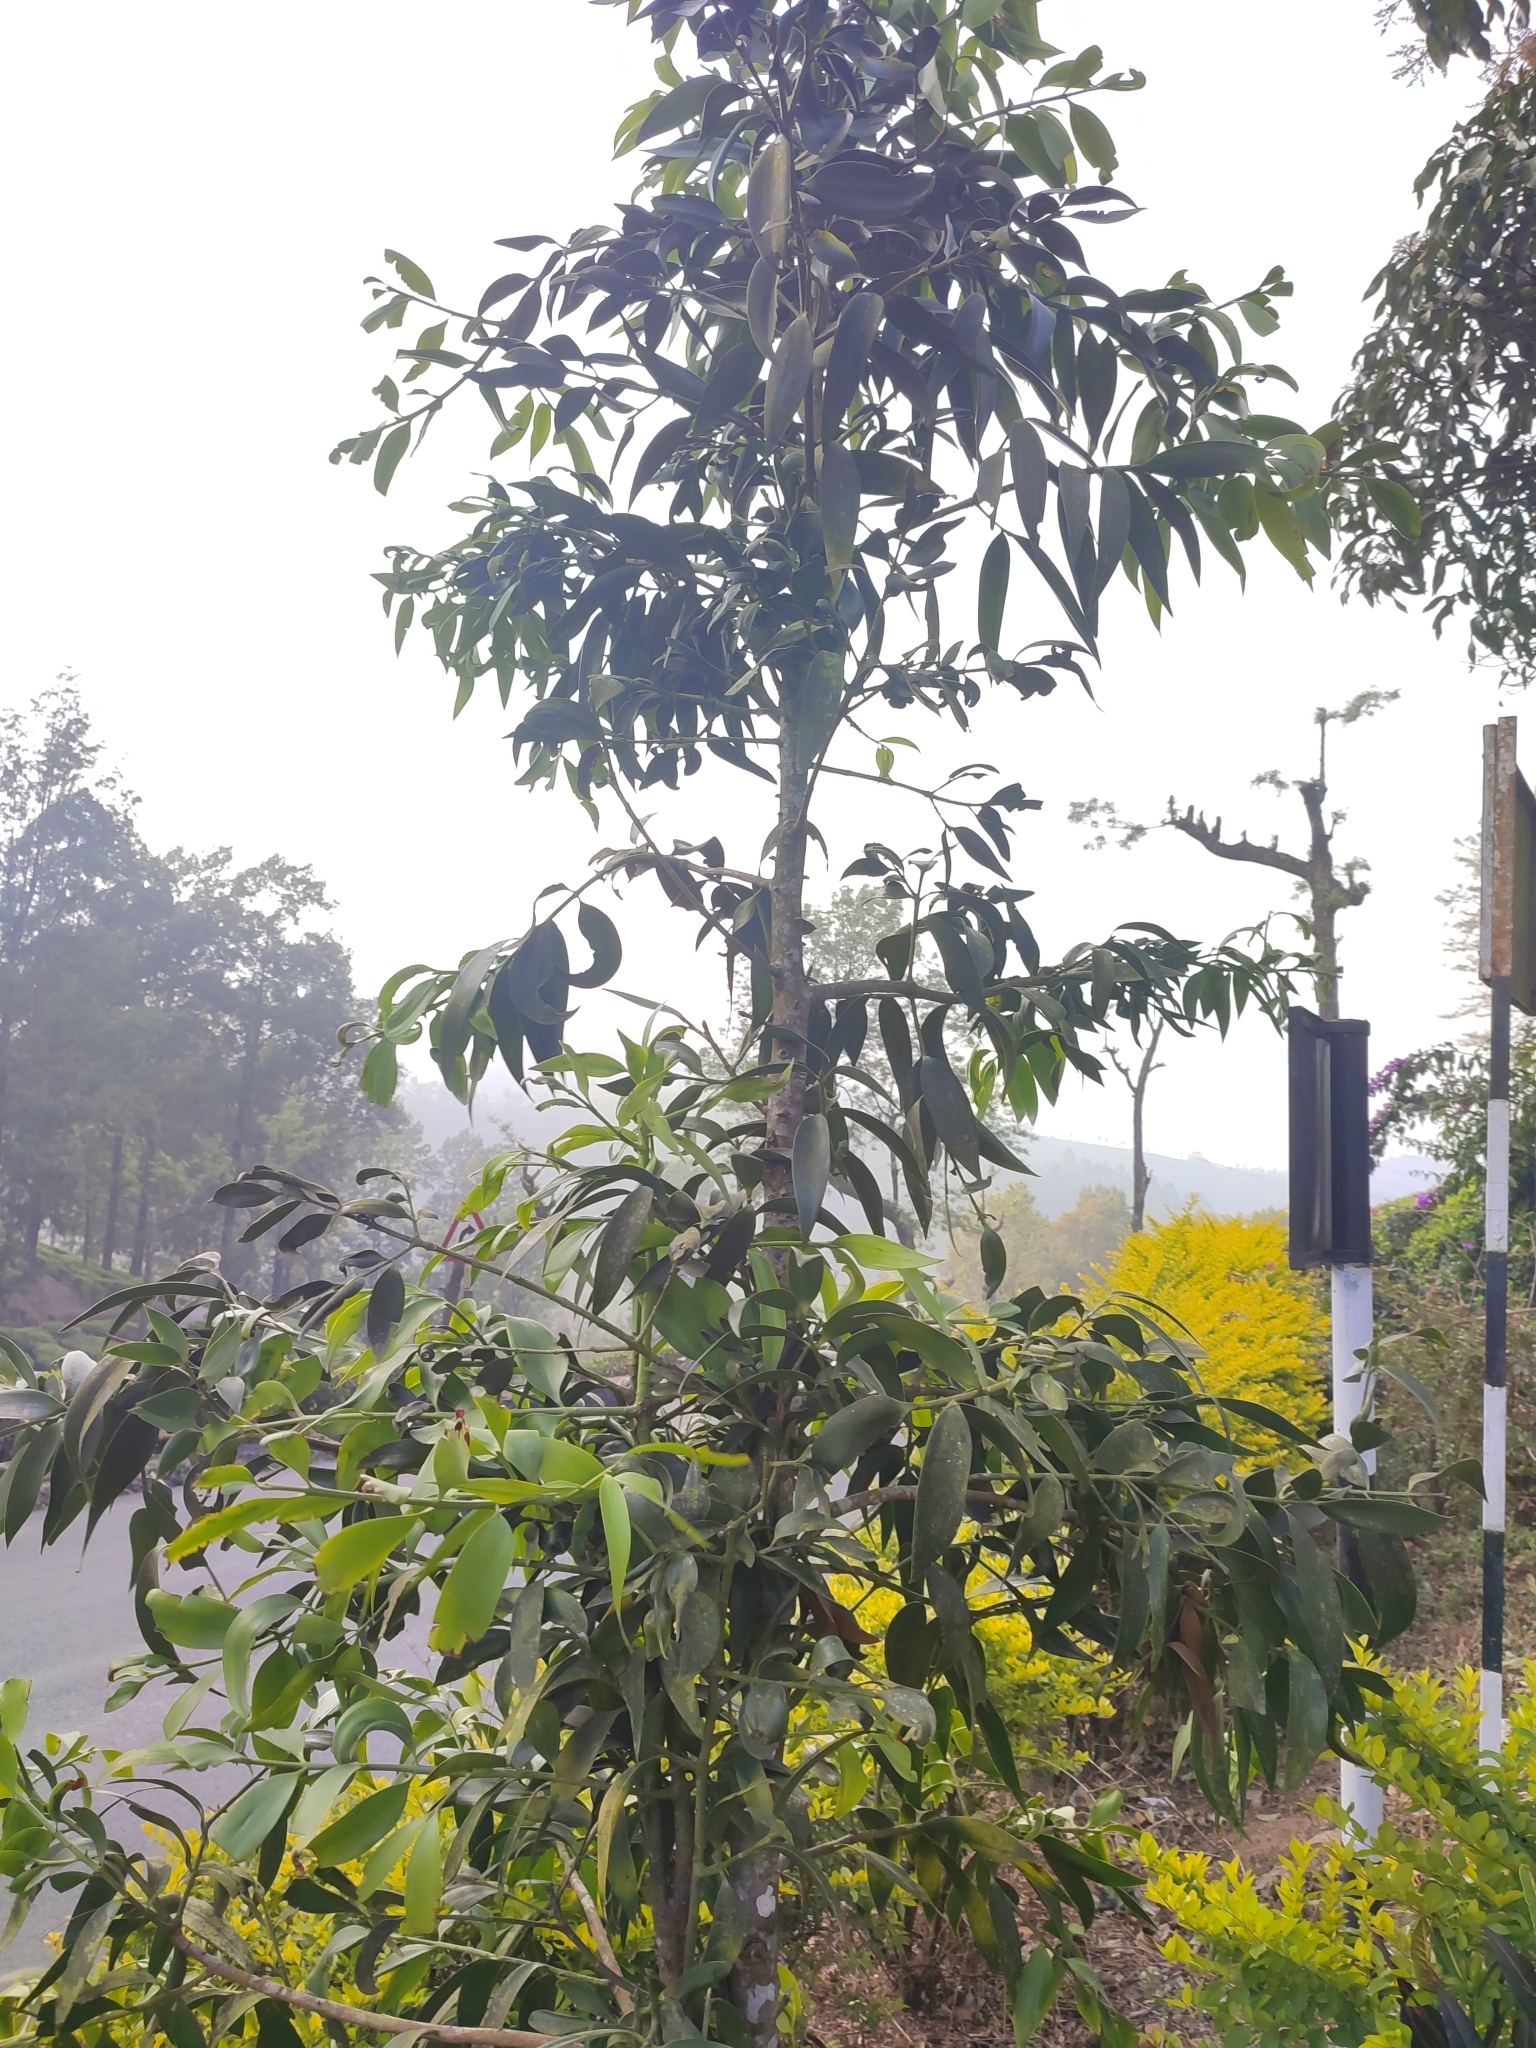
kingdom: Plantae
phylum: Tracheophyta
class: Pinopsida
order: Pinales
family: Podocarpaceae
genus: Nageia
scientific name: Nageia wallichiana
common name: Brown's-pine
